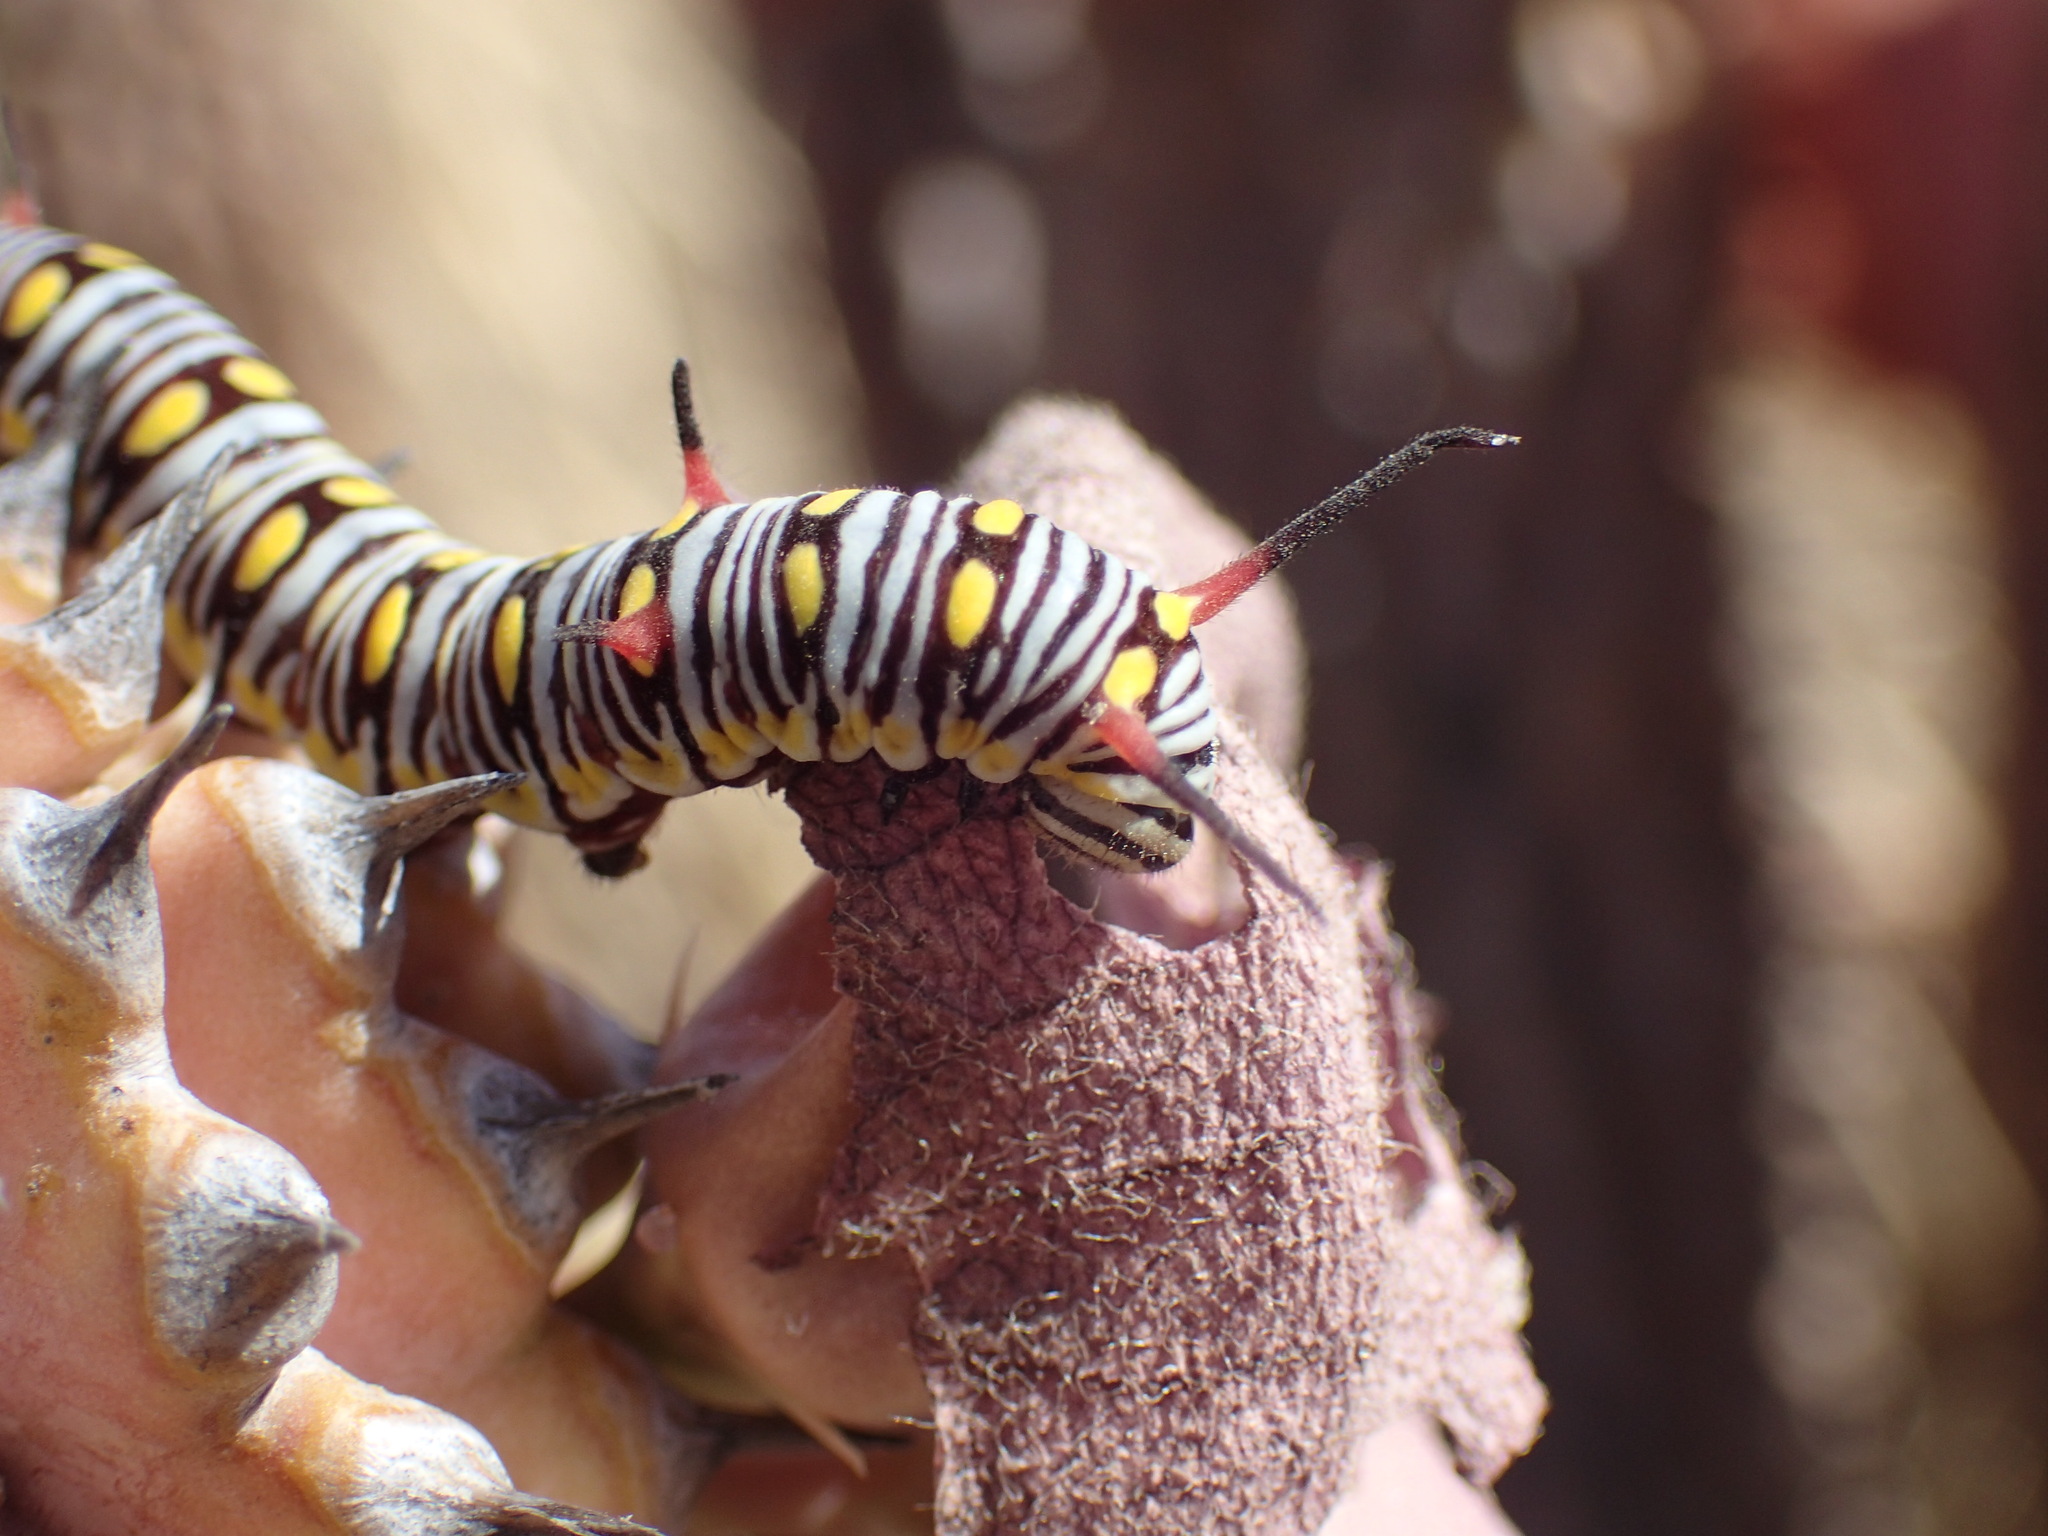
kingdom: Animalia
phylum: Arthropoda
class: Insecta
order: Lepidoptera
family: Nymphalidae
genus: Danaus
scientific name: Danaus chrysippus
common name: Plain tiger
